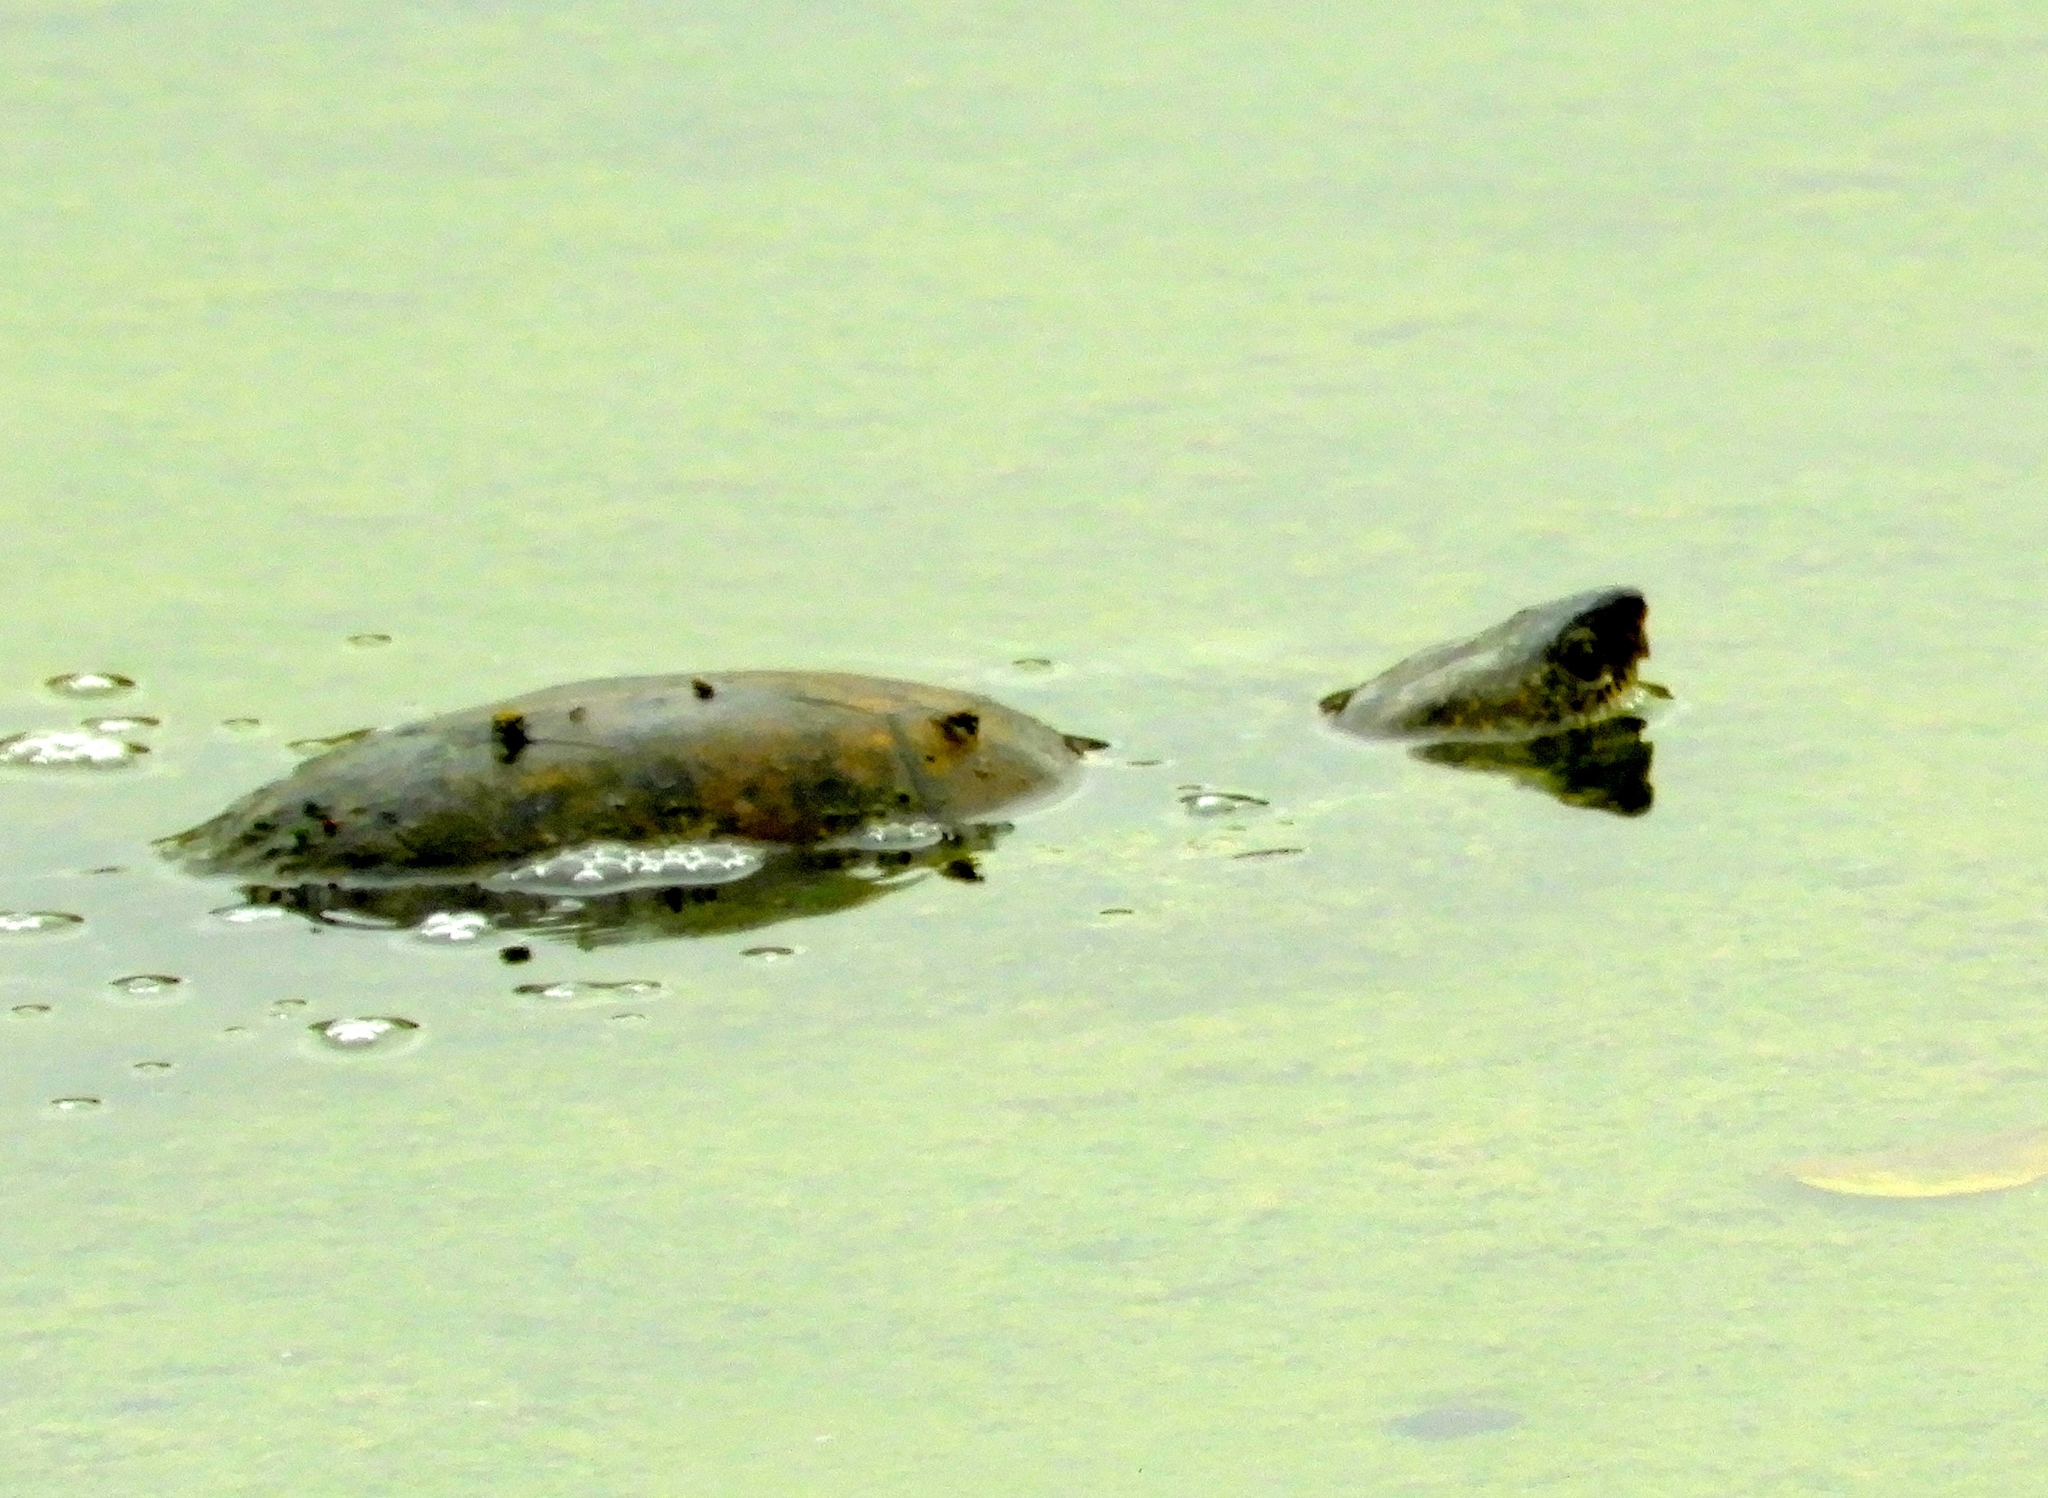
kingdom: Animalia
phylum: Chordata
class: Testudines
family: Kinosternidae
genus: Kinosternon
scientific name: Kinosternon integrum
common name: Mexican mud turtle
